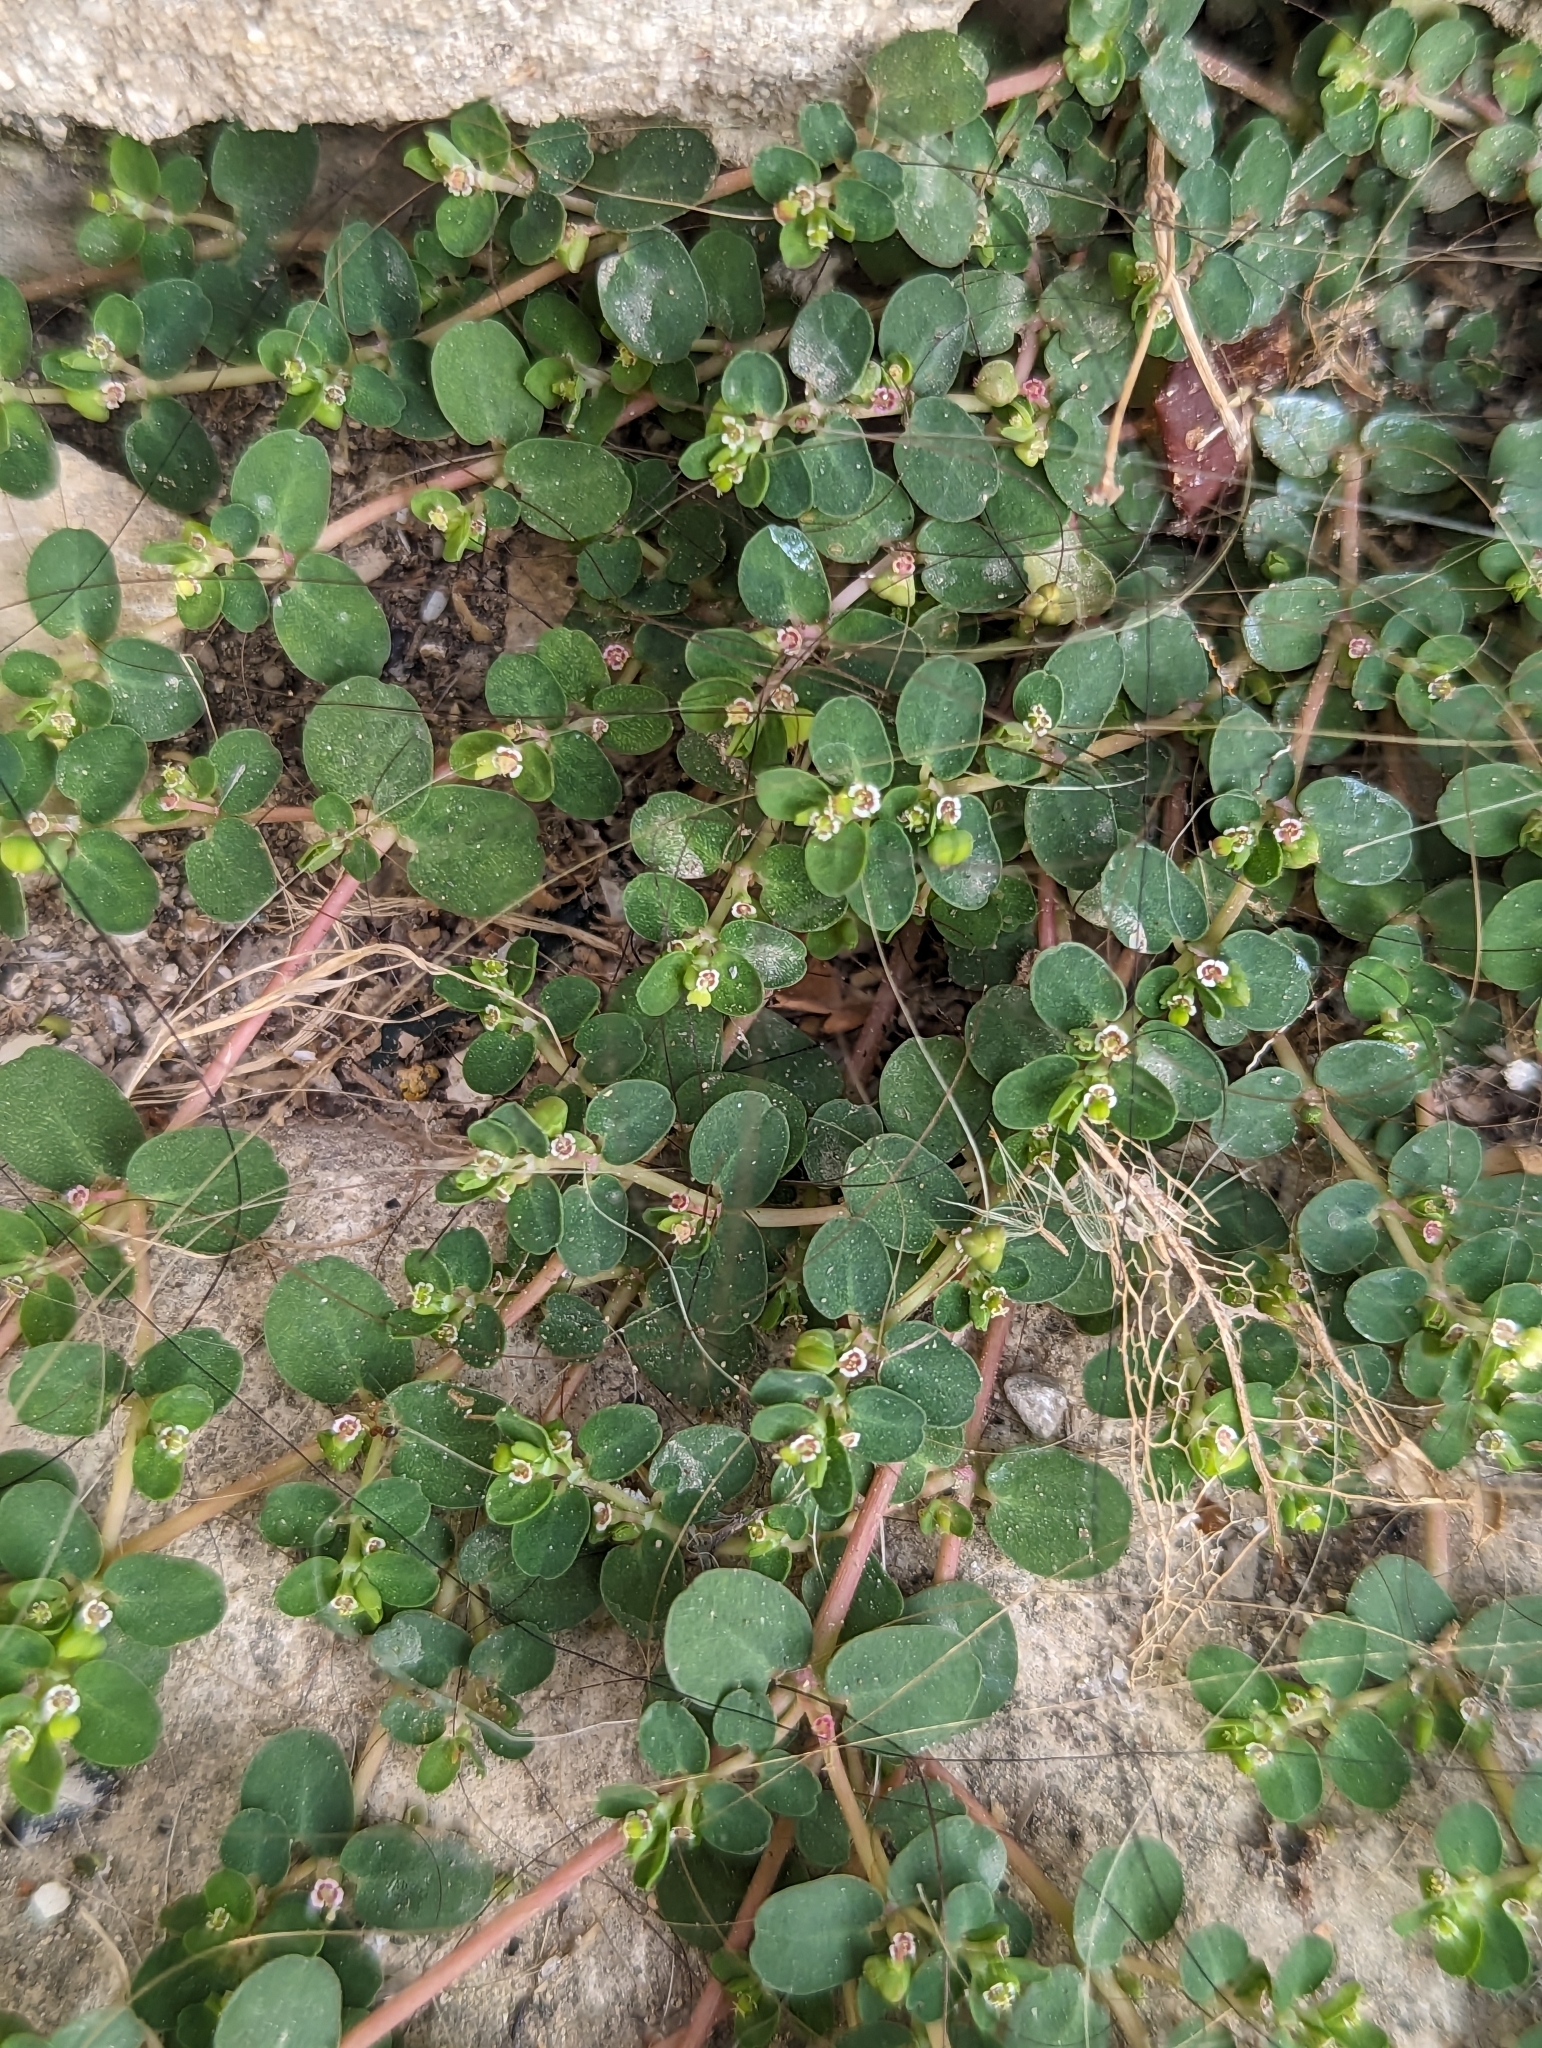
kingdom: Plantae
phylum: Tracheophyta
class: Magnoliopsida
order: Malpighiales
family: Euphorbiaceae
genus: Euphorbia
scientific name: Euphorbia serpens
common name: Matted sandmat
